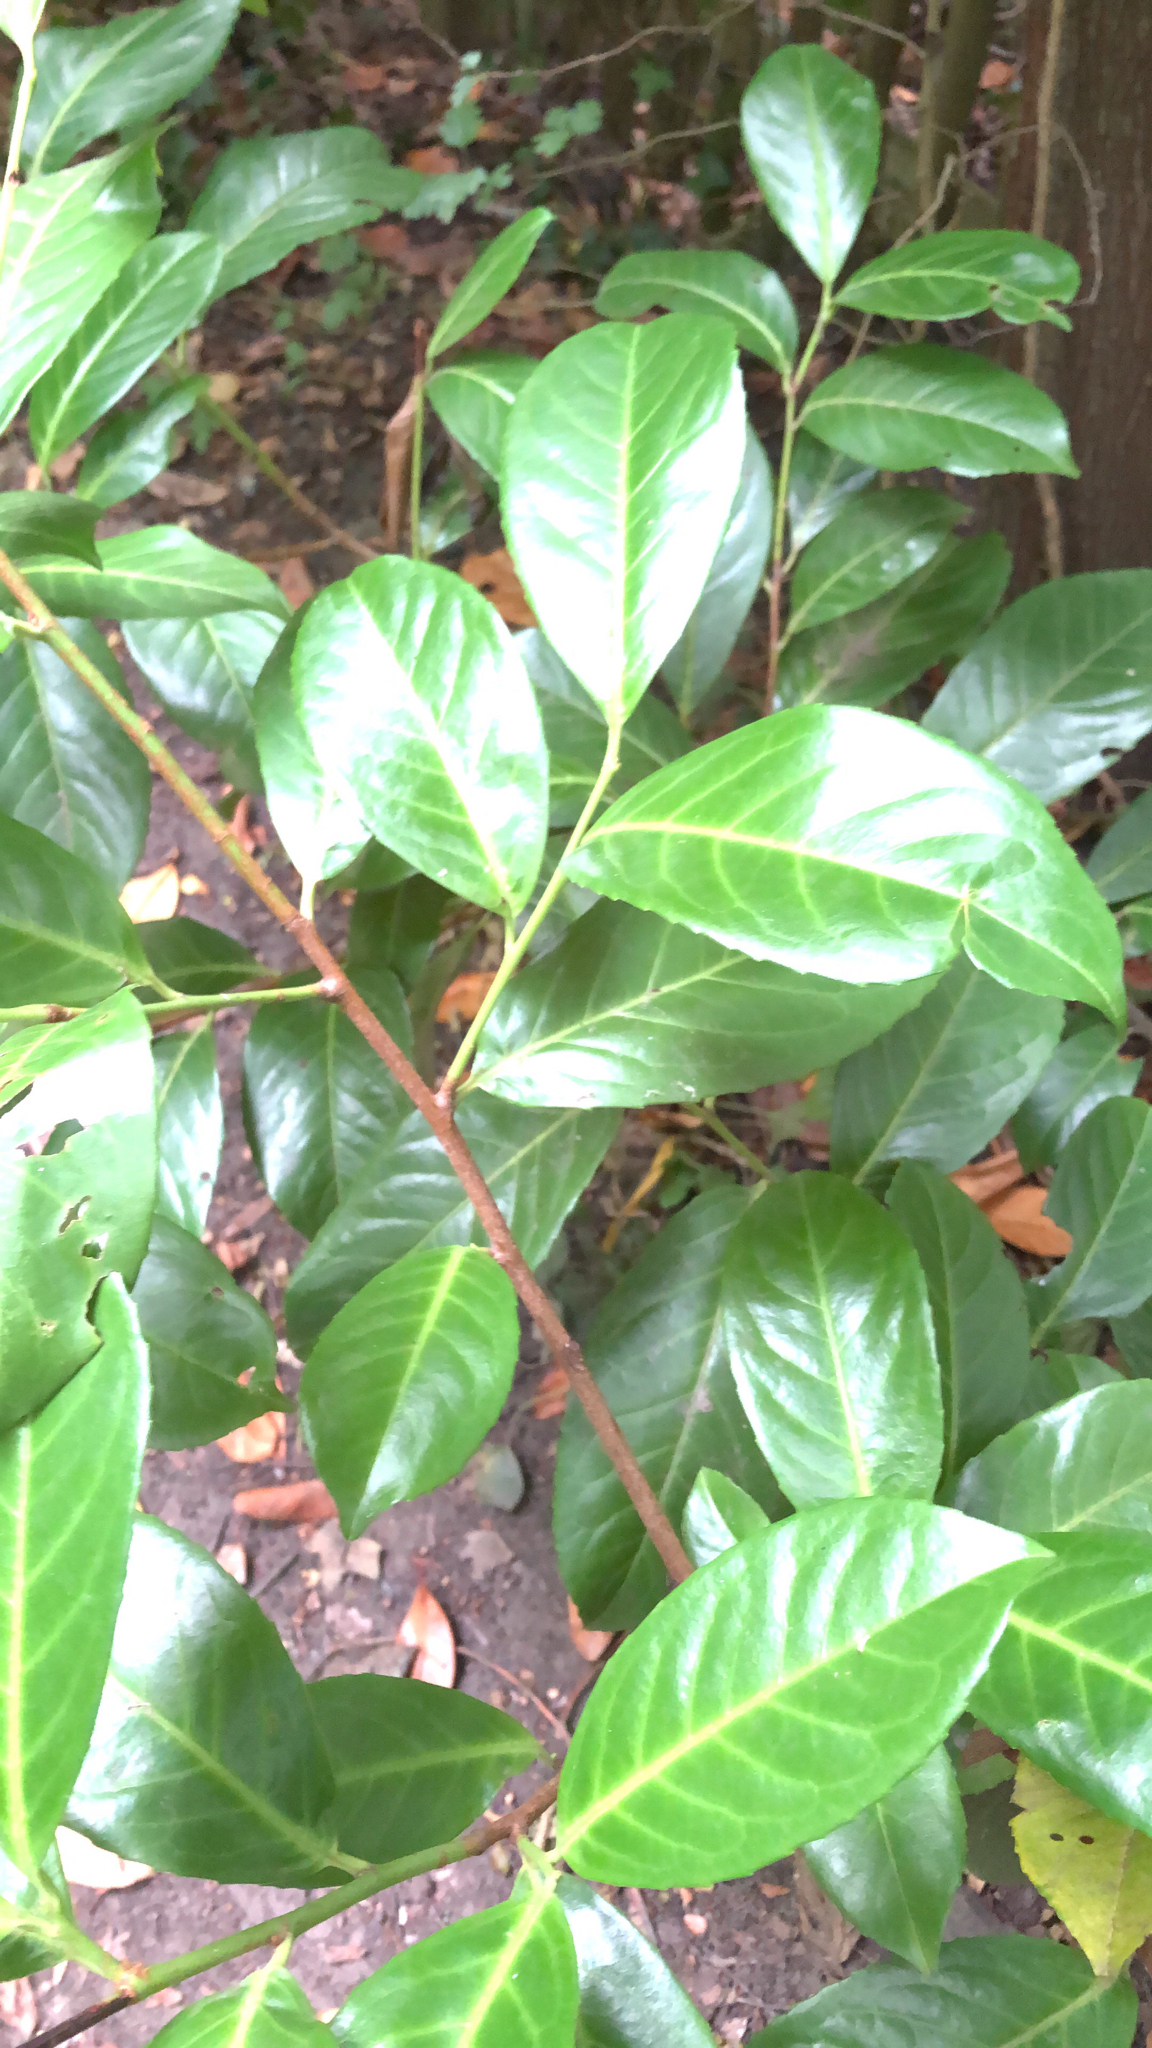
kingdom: Plantae
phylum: Tracheophyta
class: Magnoliopsida
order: Rosales
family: Rosaceae
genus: Prunus
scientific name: Prunus laurocerasus
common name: Cherry laurel
